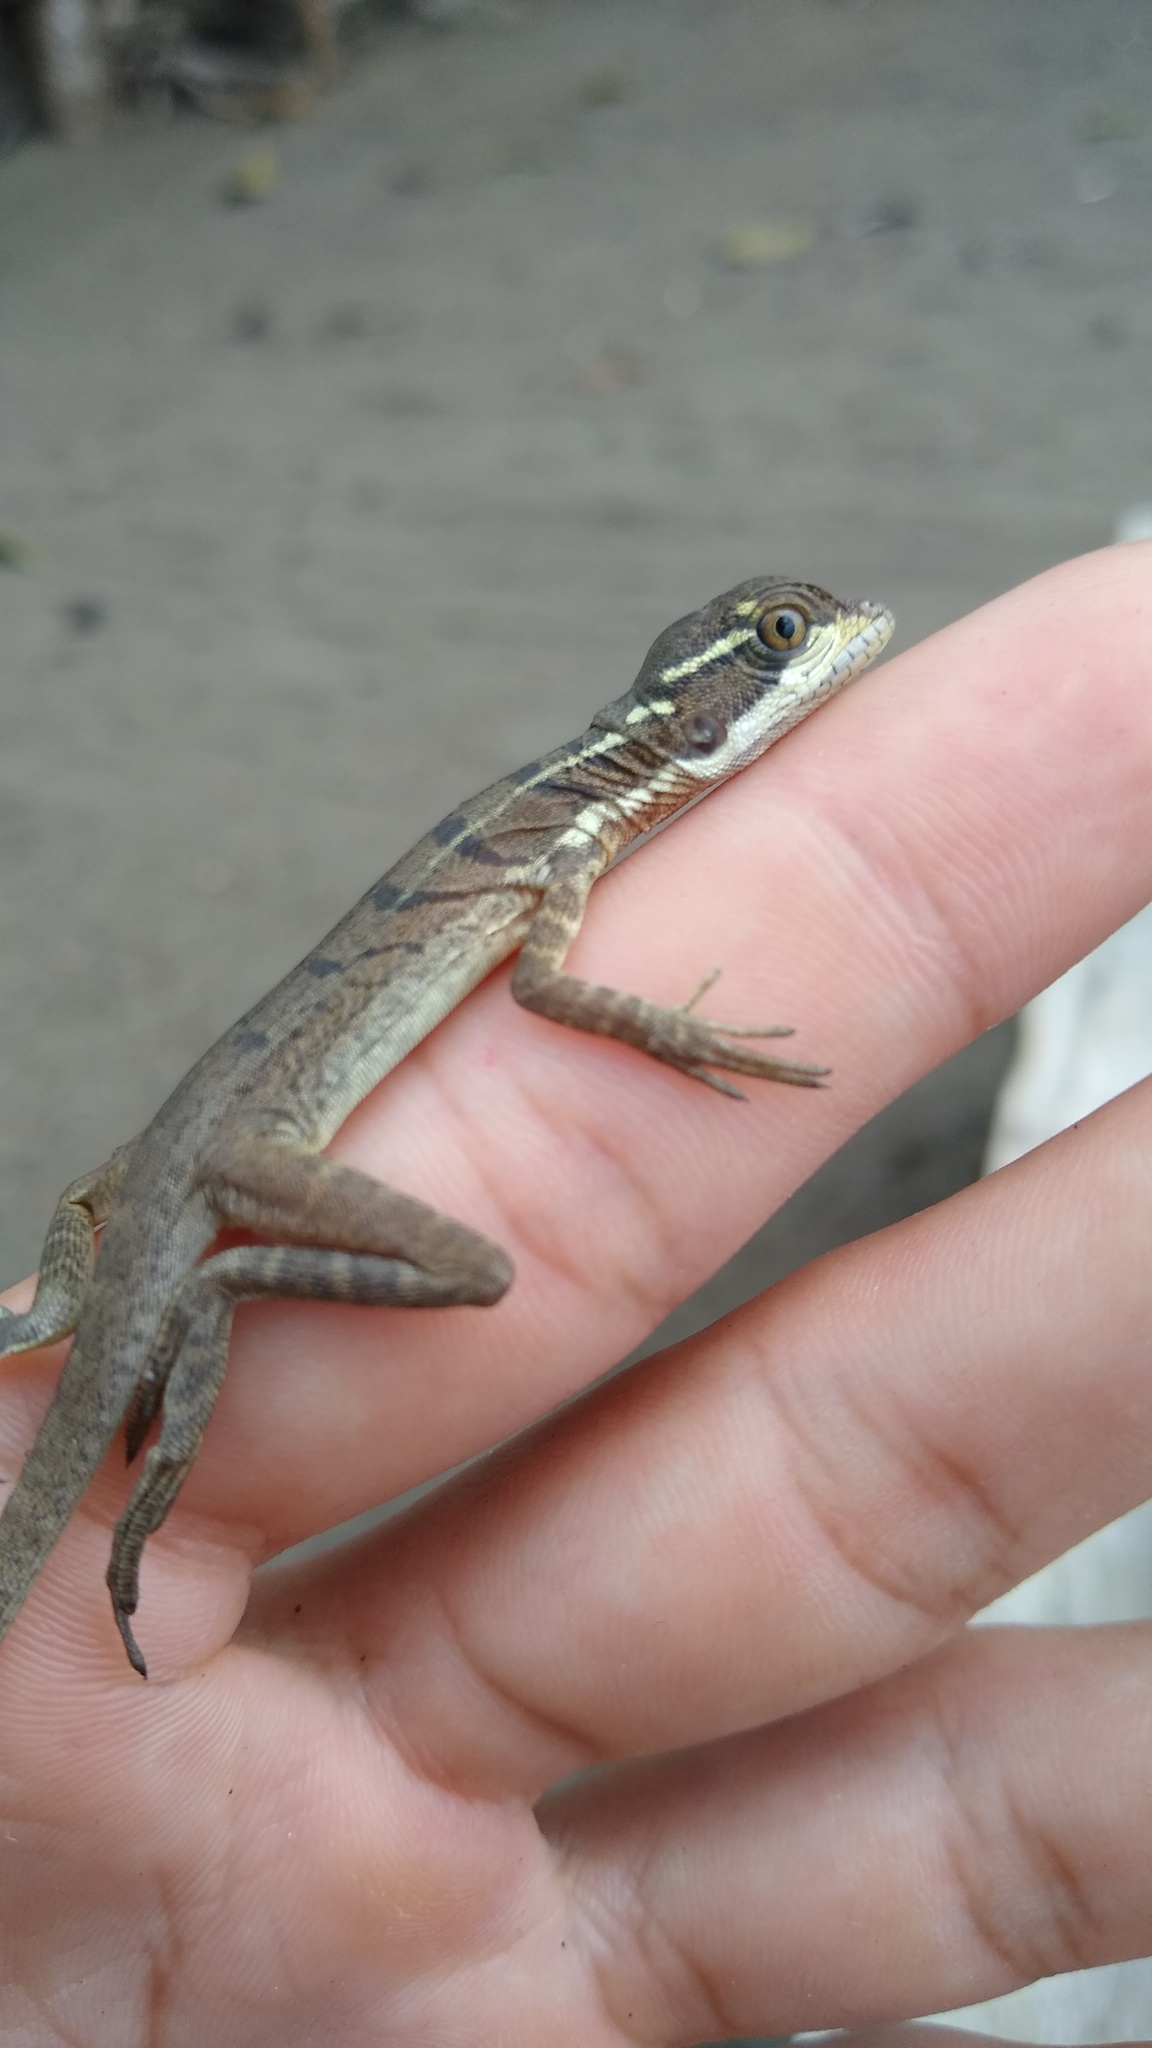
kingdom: Animalia
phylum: Chordata
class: Squamata
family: Corytophanidae
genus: Basiliscus
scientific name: Basiliscus basiliscus
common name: Common basilisk
